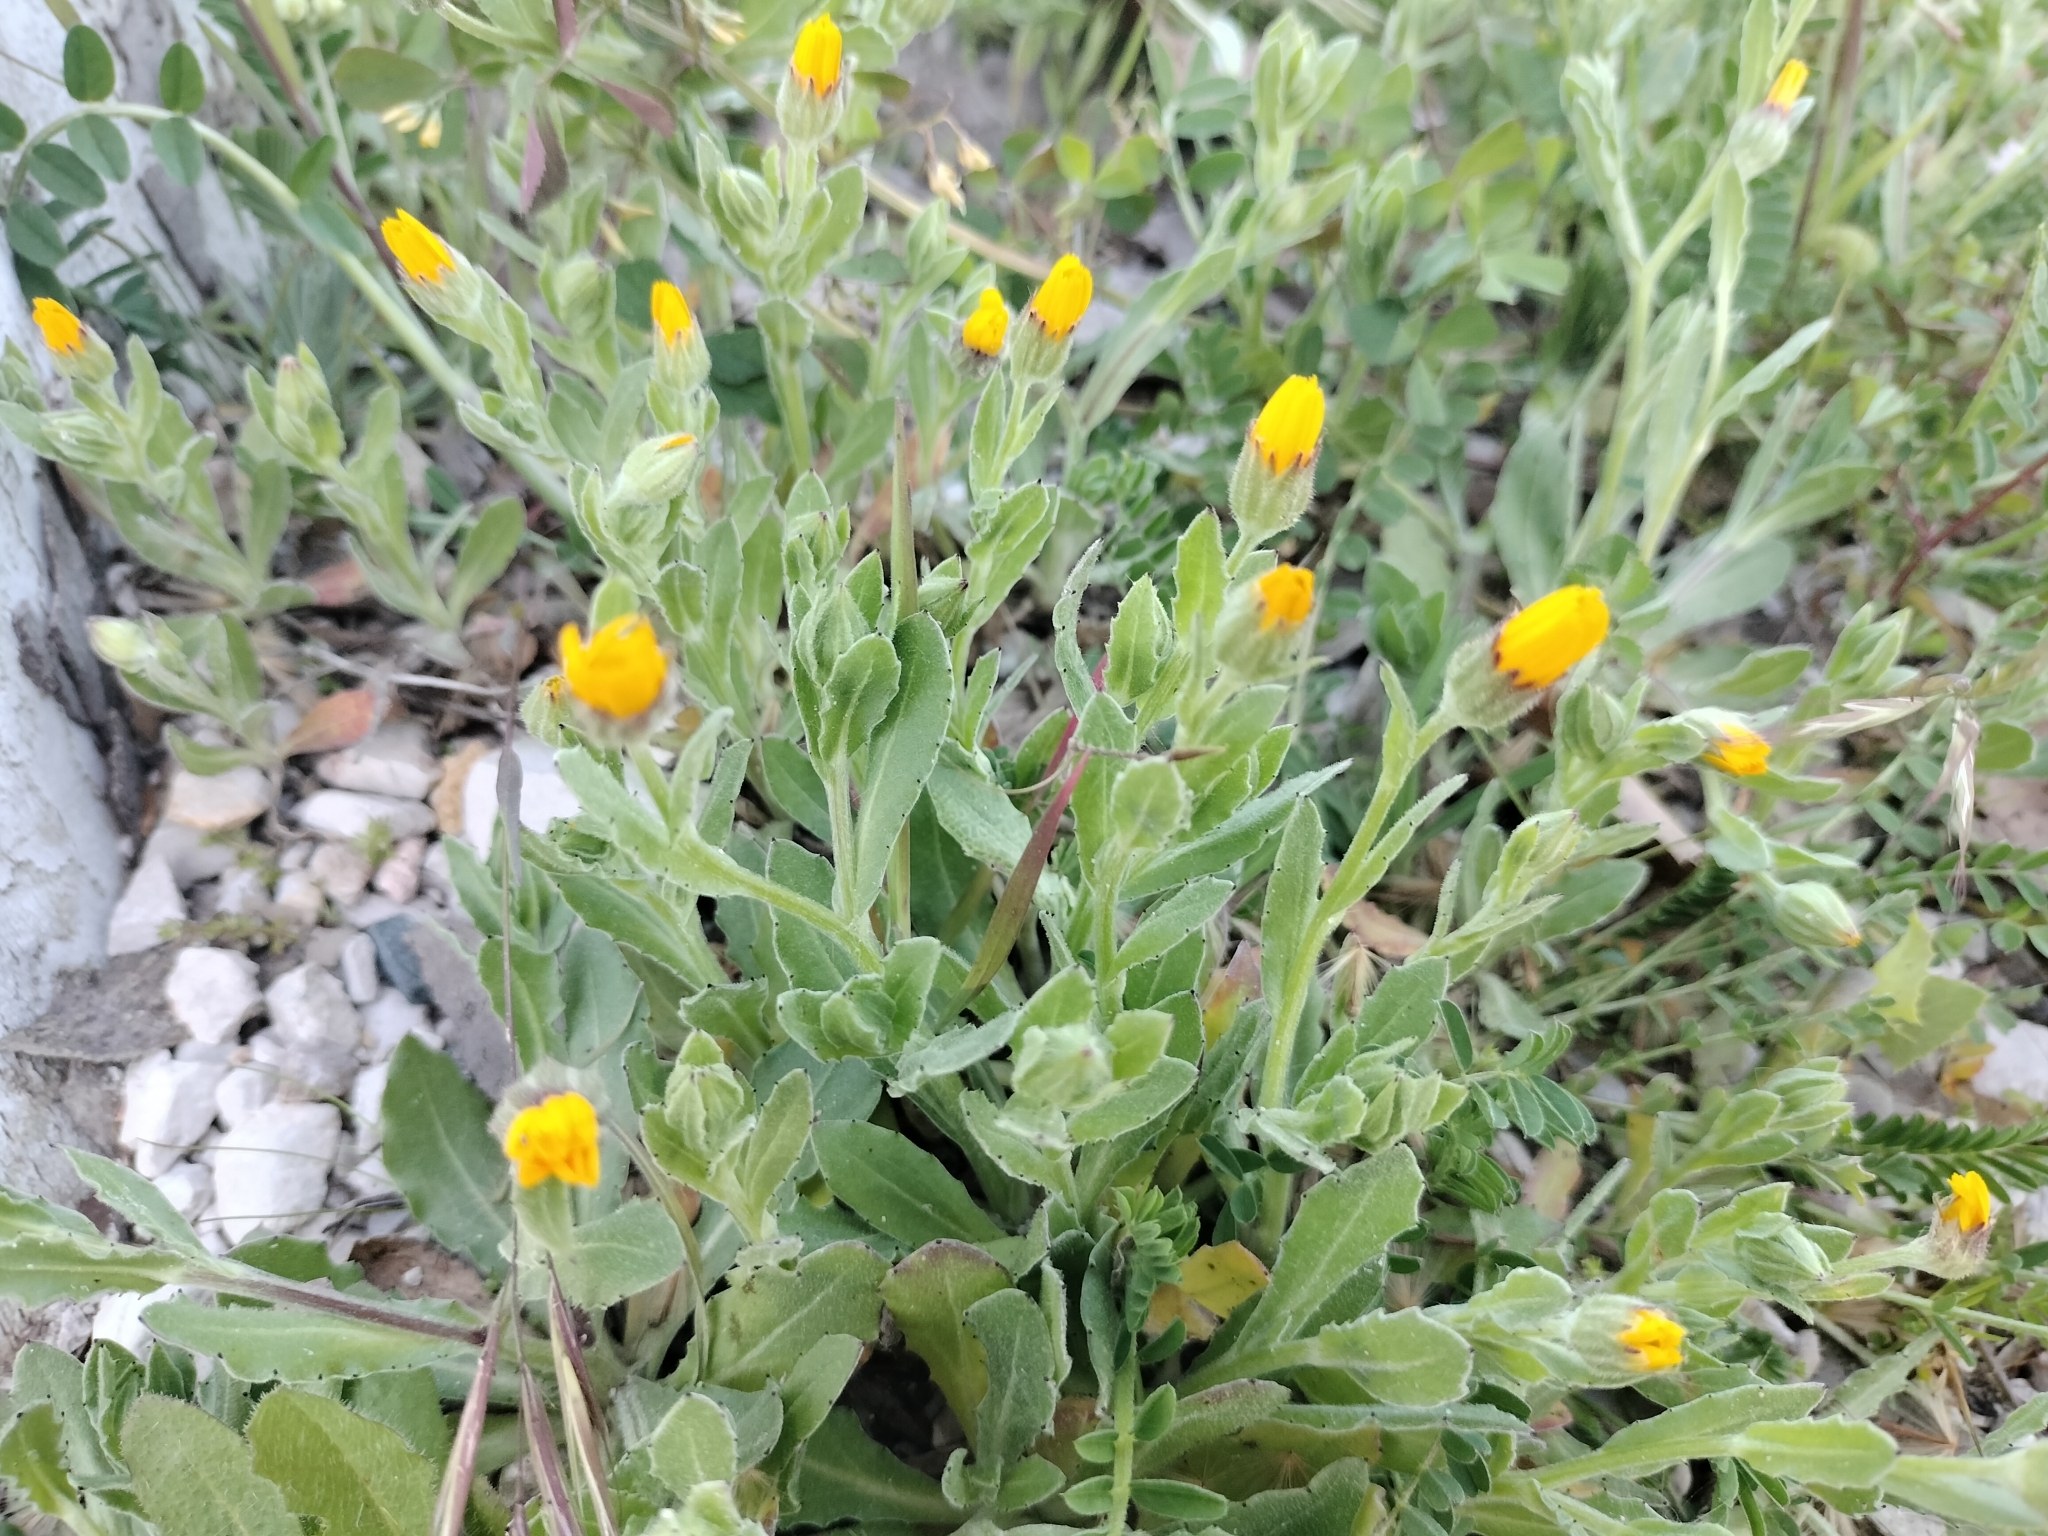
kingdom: Plantae
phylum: Tracheophyta
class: Magnoliopsida
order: Asterales
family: Asteraceae
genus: Calendula
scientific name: Calendula arvensis
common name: Field marigold
